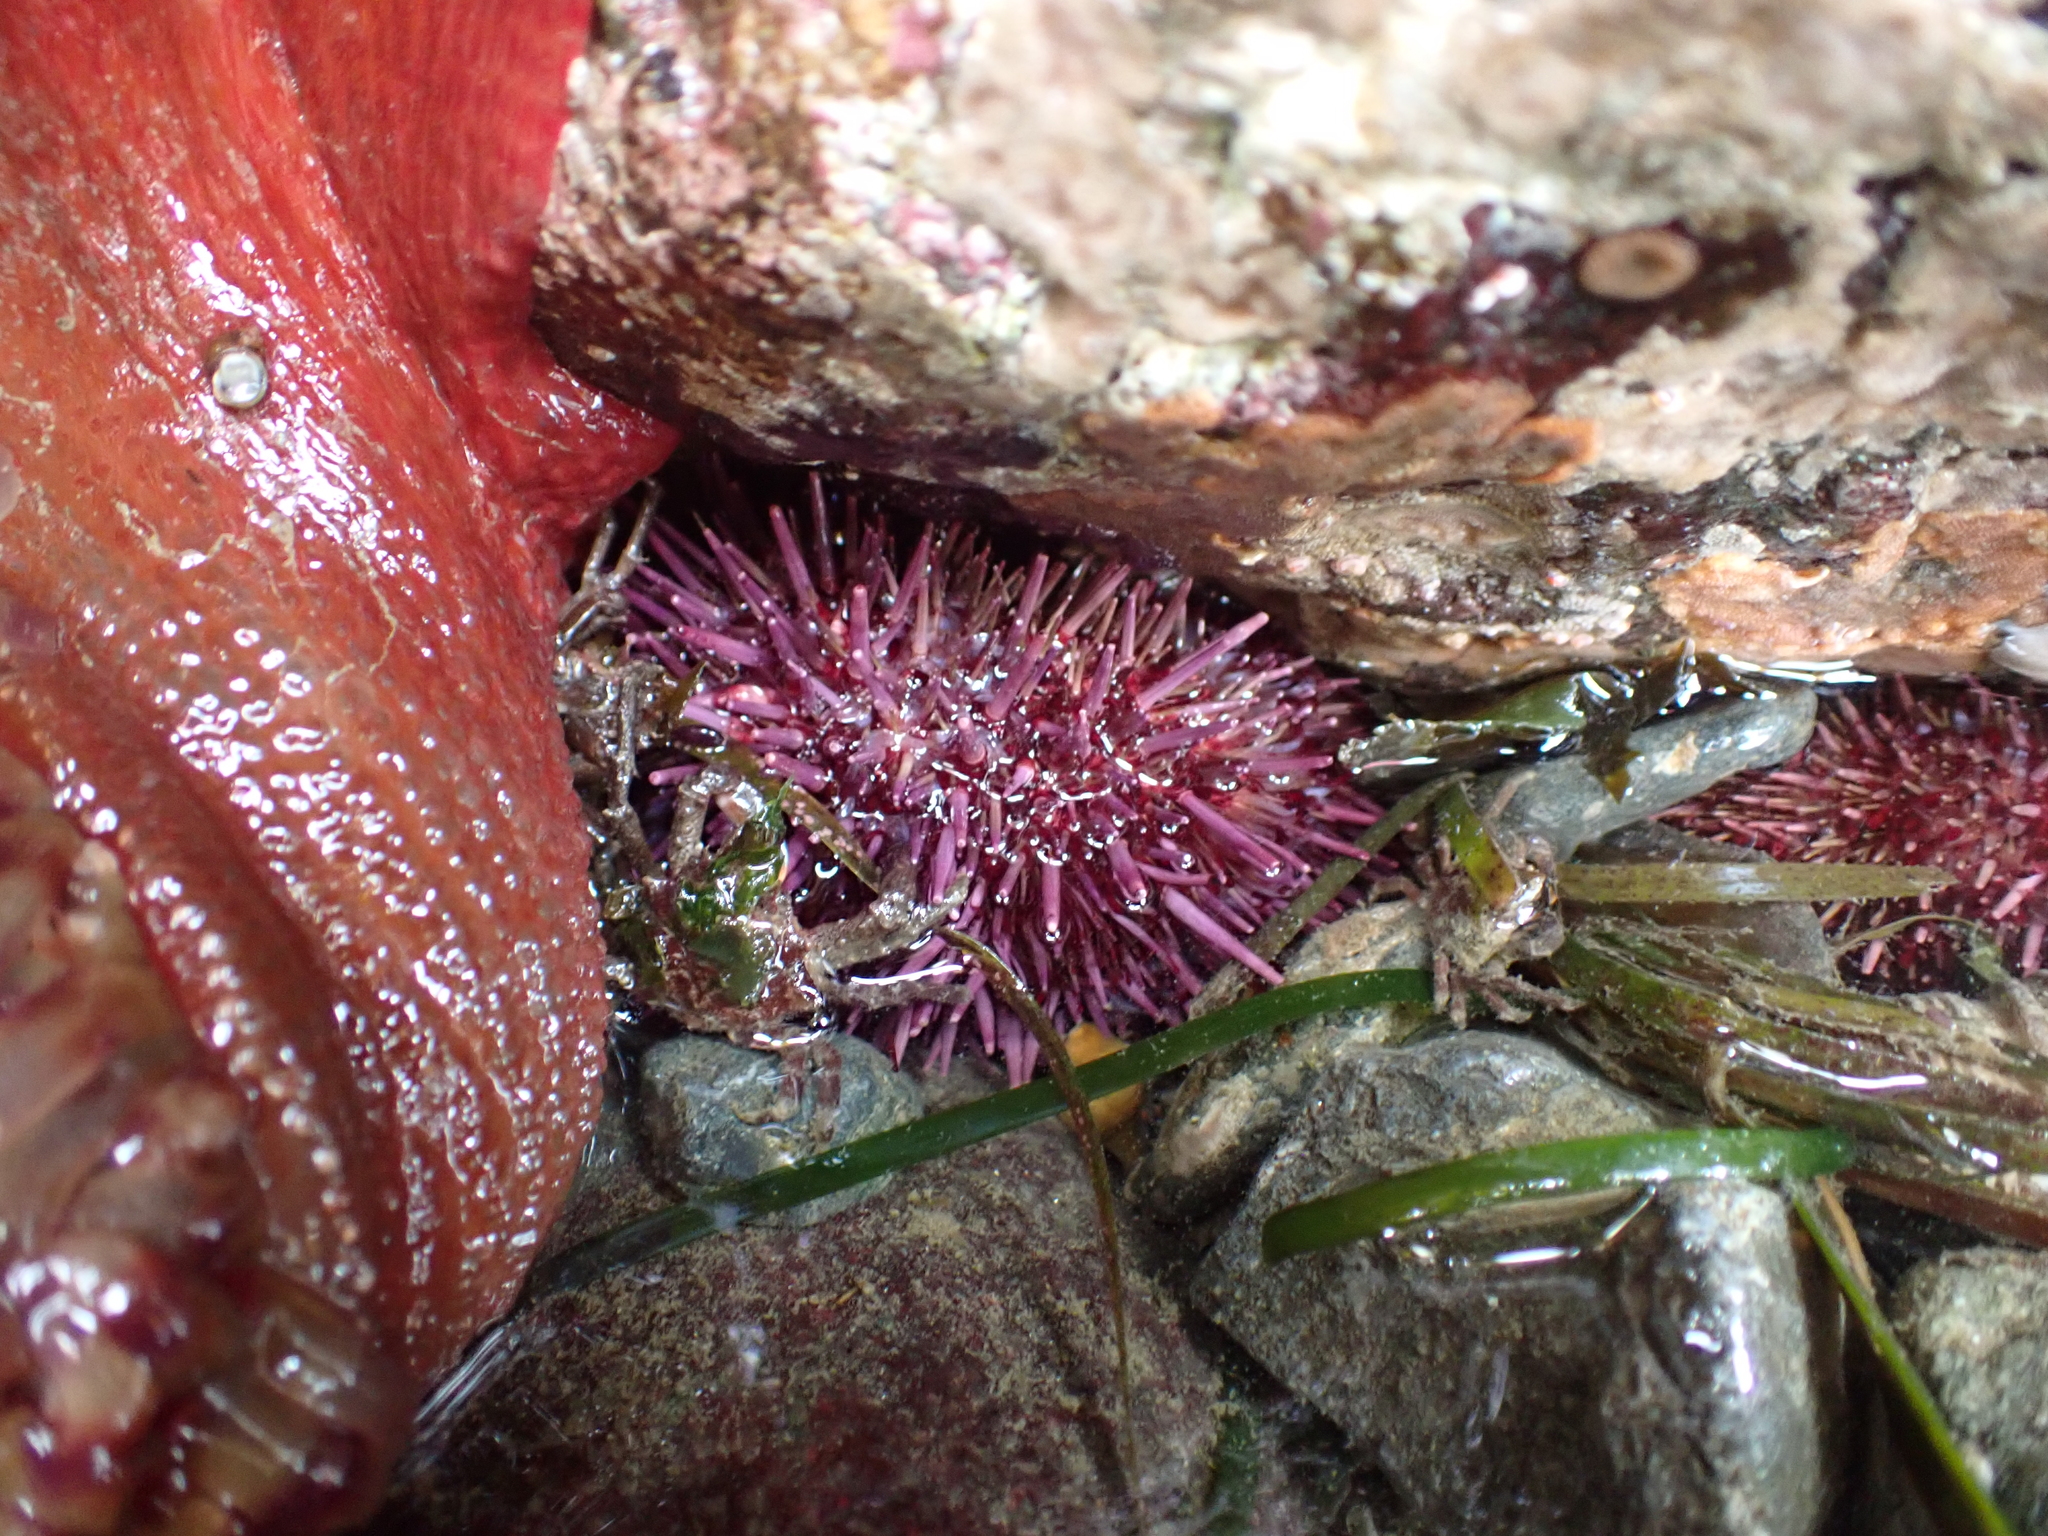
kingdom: Animalia
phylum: Echinodermata
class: Echinoidea
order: Camarodonta
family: Strongylocentrotidae
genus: Strongylocentrotus
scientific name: Strongylocentrotus purpuratus
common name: Purple sea urchin
